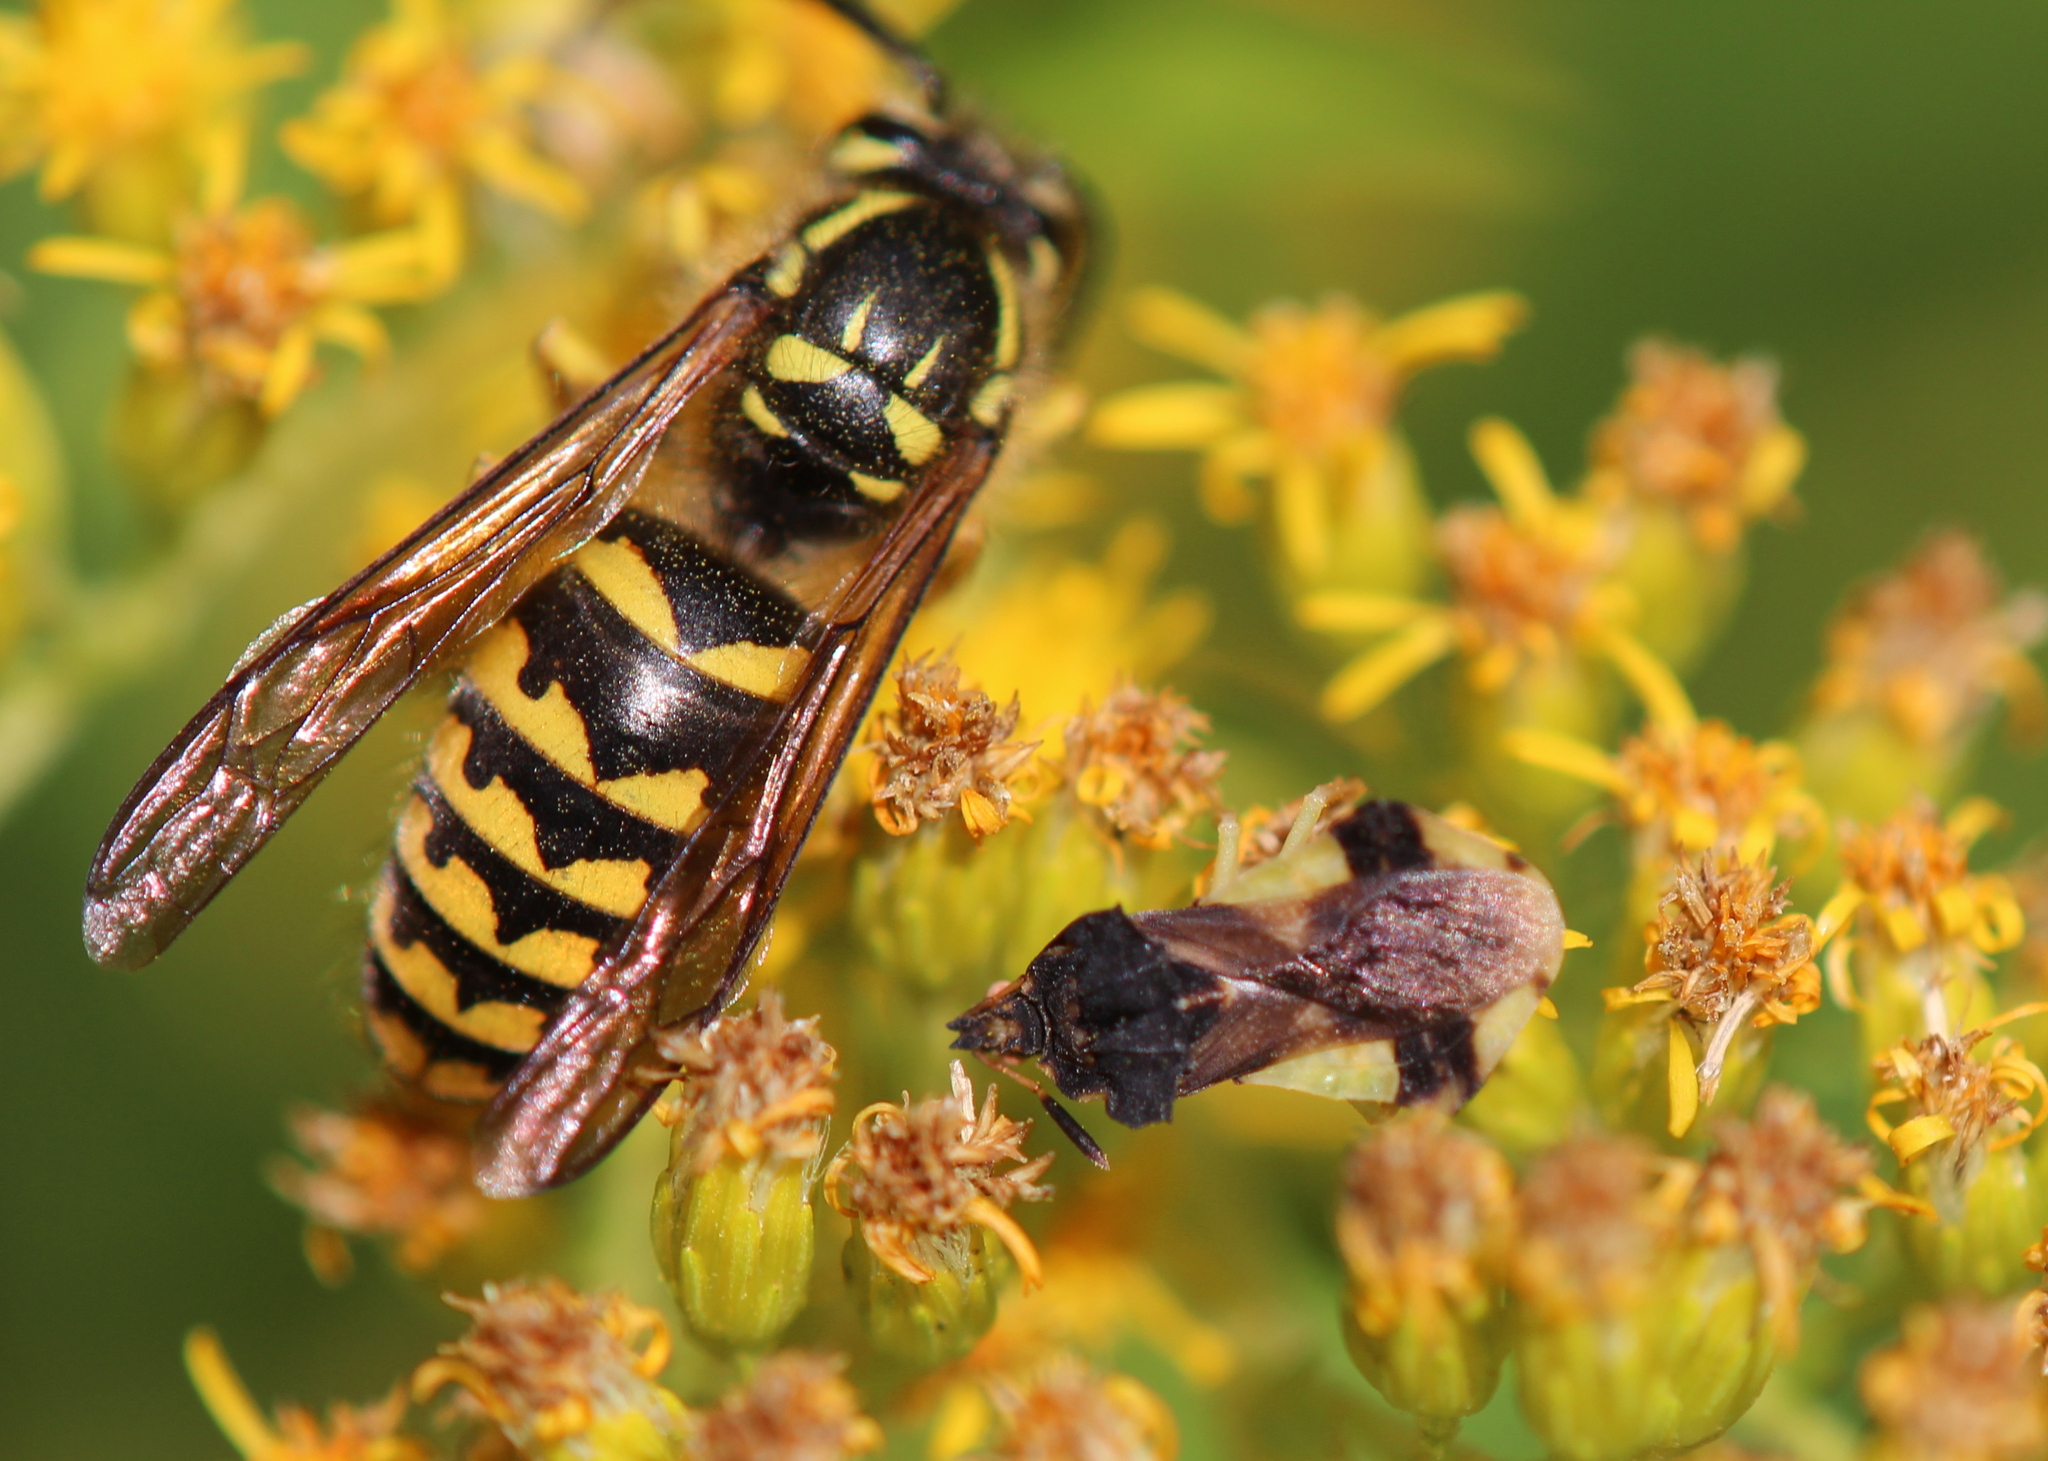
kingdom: Animalia
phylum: Arthropoda
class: Insecta
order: Hymenoptera
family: Vespidae
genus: Dolichovespula
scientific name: Dolichovespula arenaria
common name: Aerial yellowjacket
